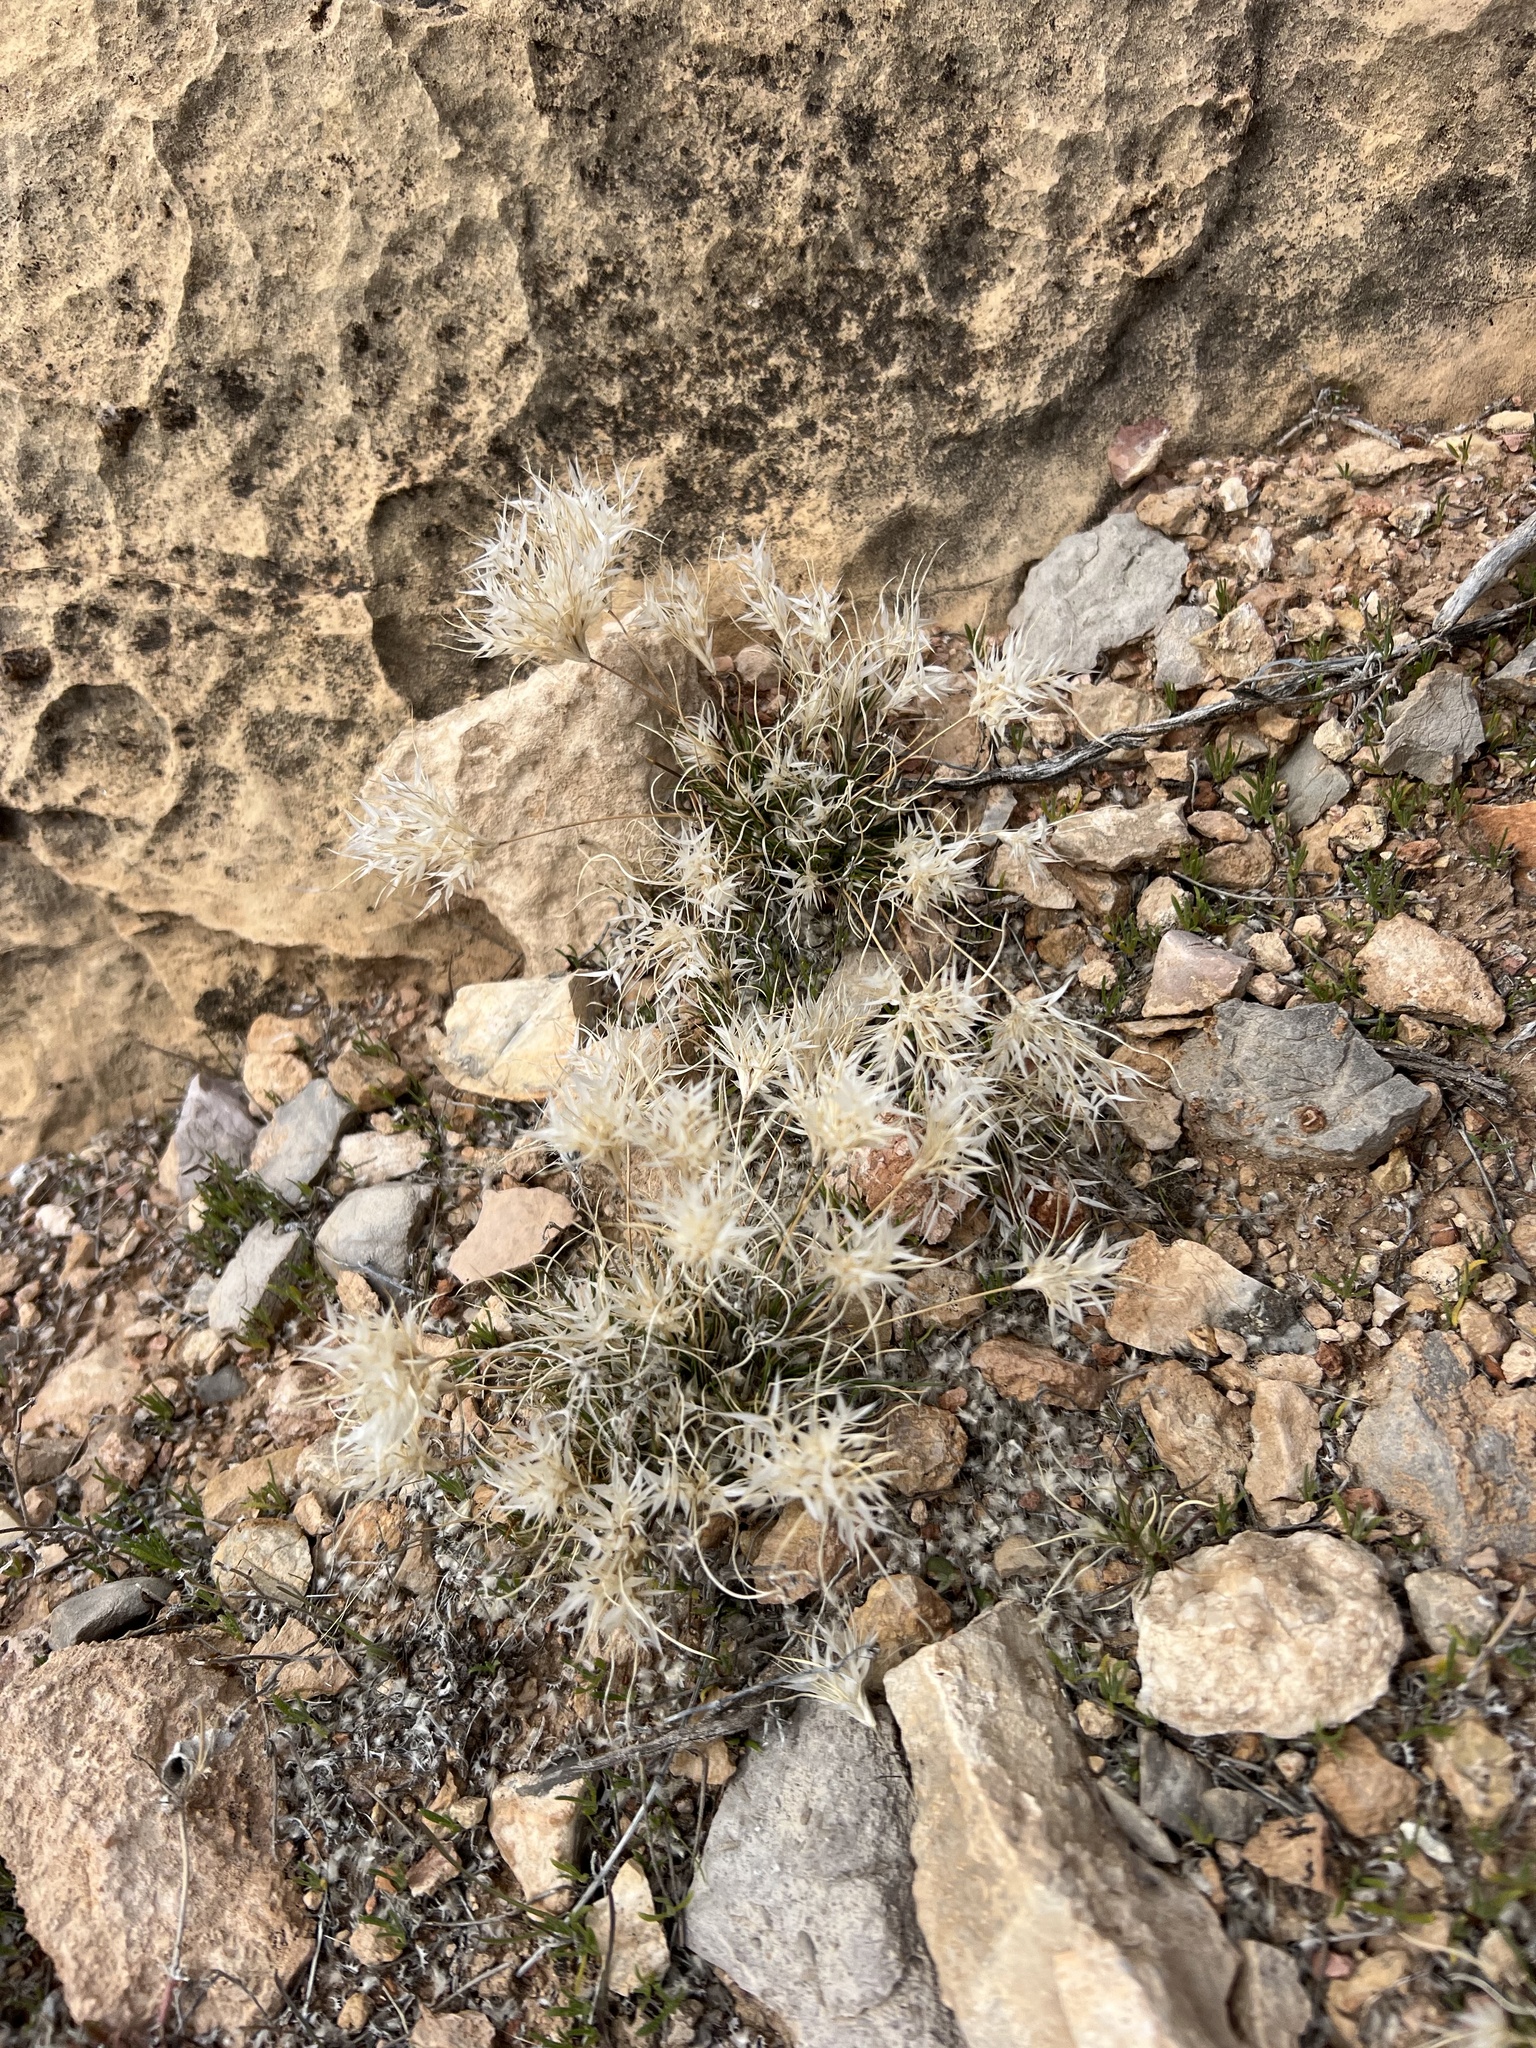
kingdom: Plantae
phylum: Tracheophyta
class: Liliopsida
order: Poales
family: Poaceae
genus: Dasyochloa
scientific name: Dasyochloa pulchella
